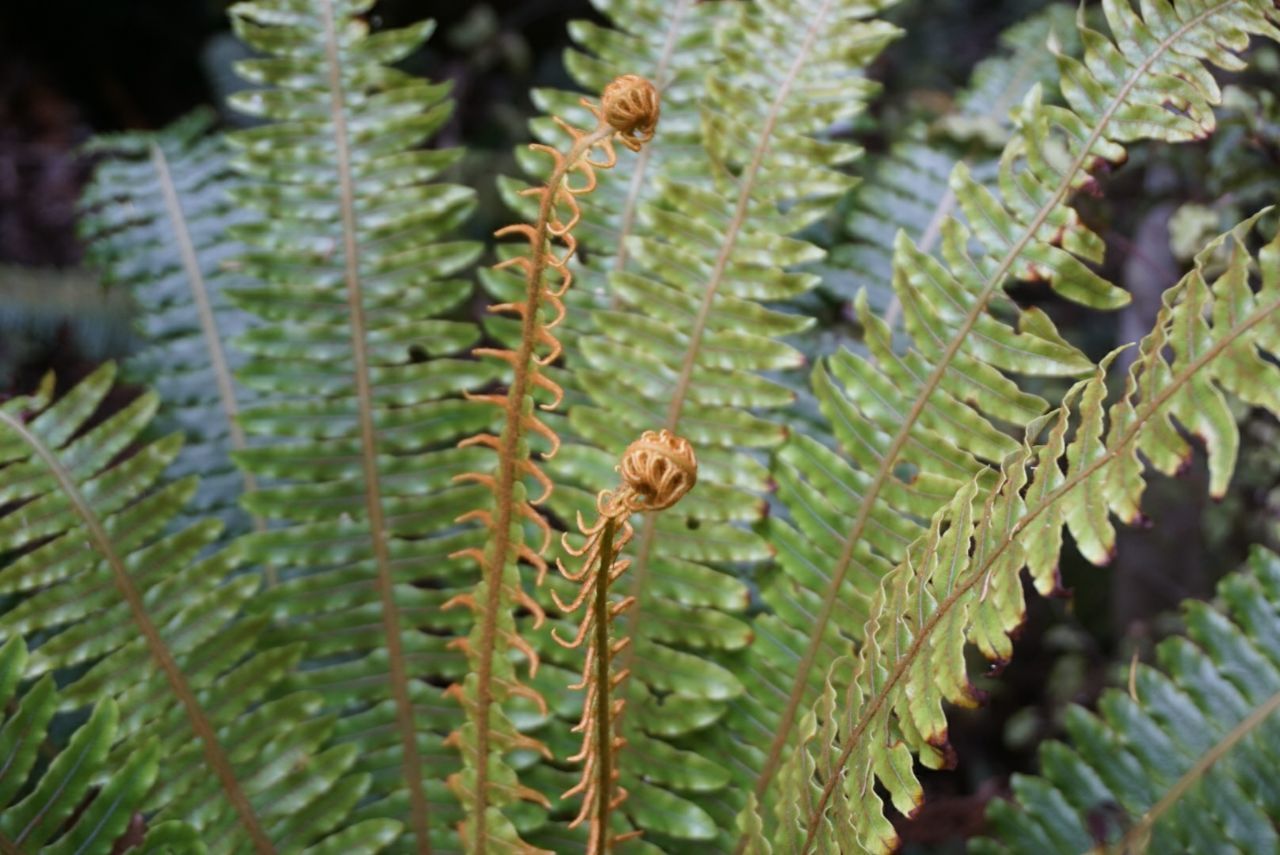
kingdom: Plantae
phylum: Tracheophyta
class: Polypodiopsida
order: Polypodiales
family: Blechnaceae
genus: Lomaria
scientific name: Lomaria discolor
